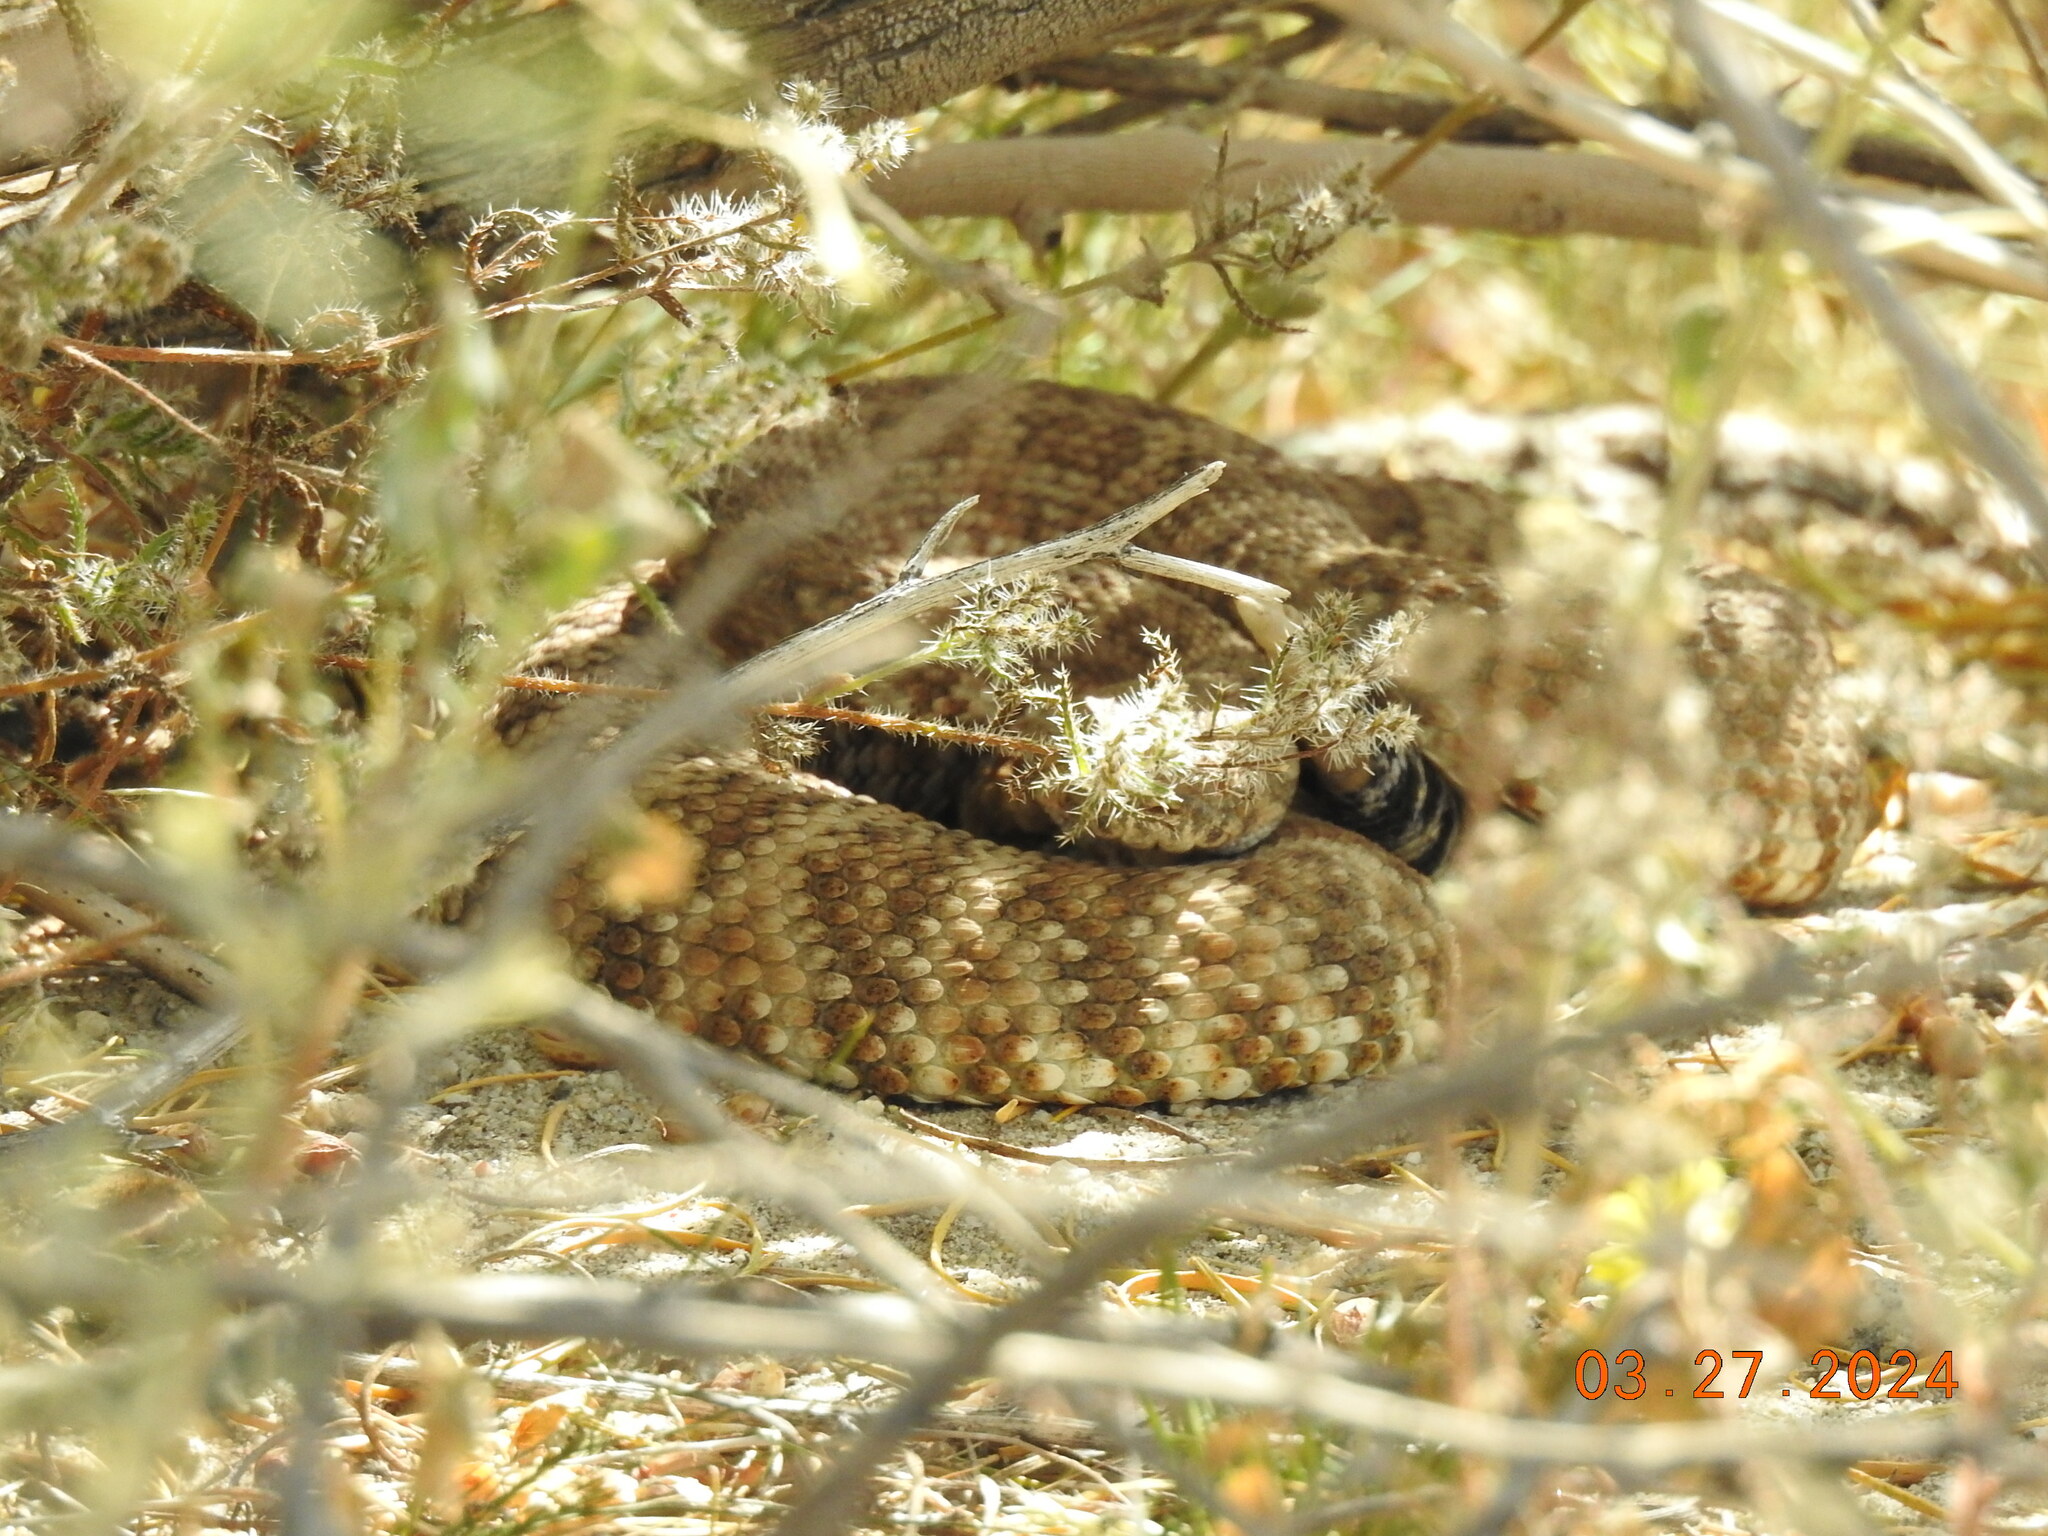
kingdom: Animalia
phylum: Chordata
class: Squamata
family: Viperidae
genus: Crotalus
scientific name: Crotalus pyrrhus
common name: Southwestern speckled rattlesnake
